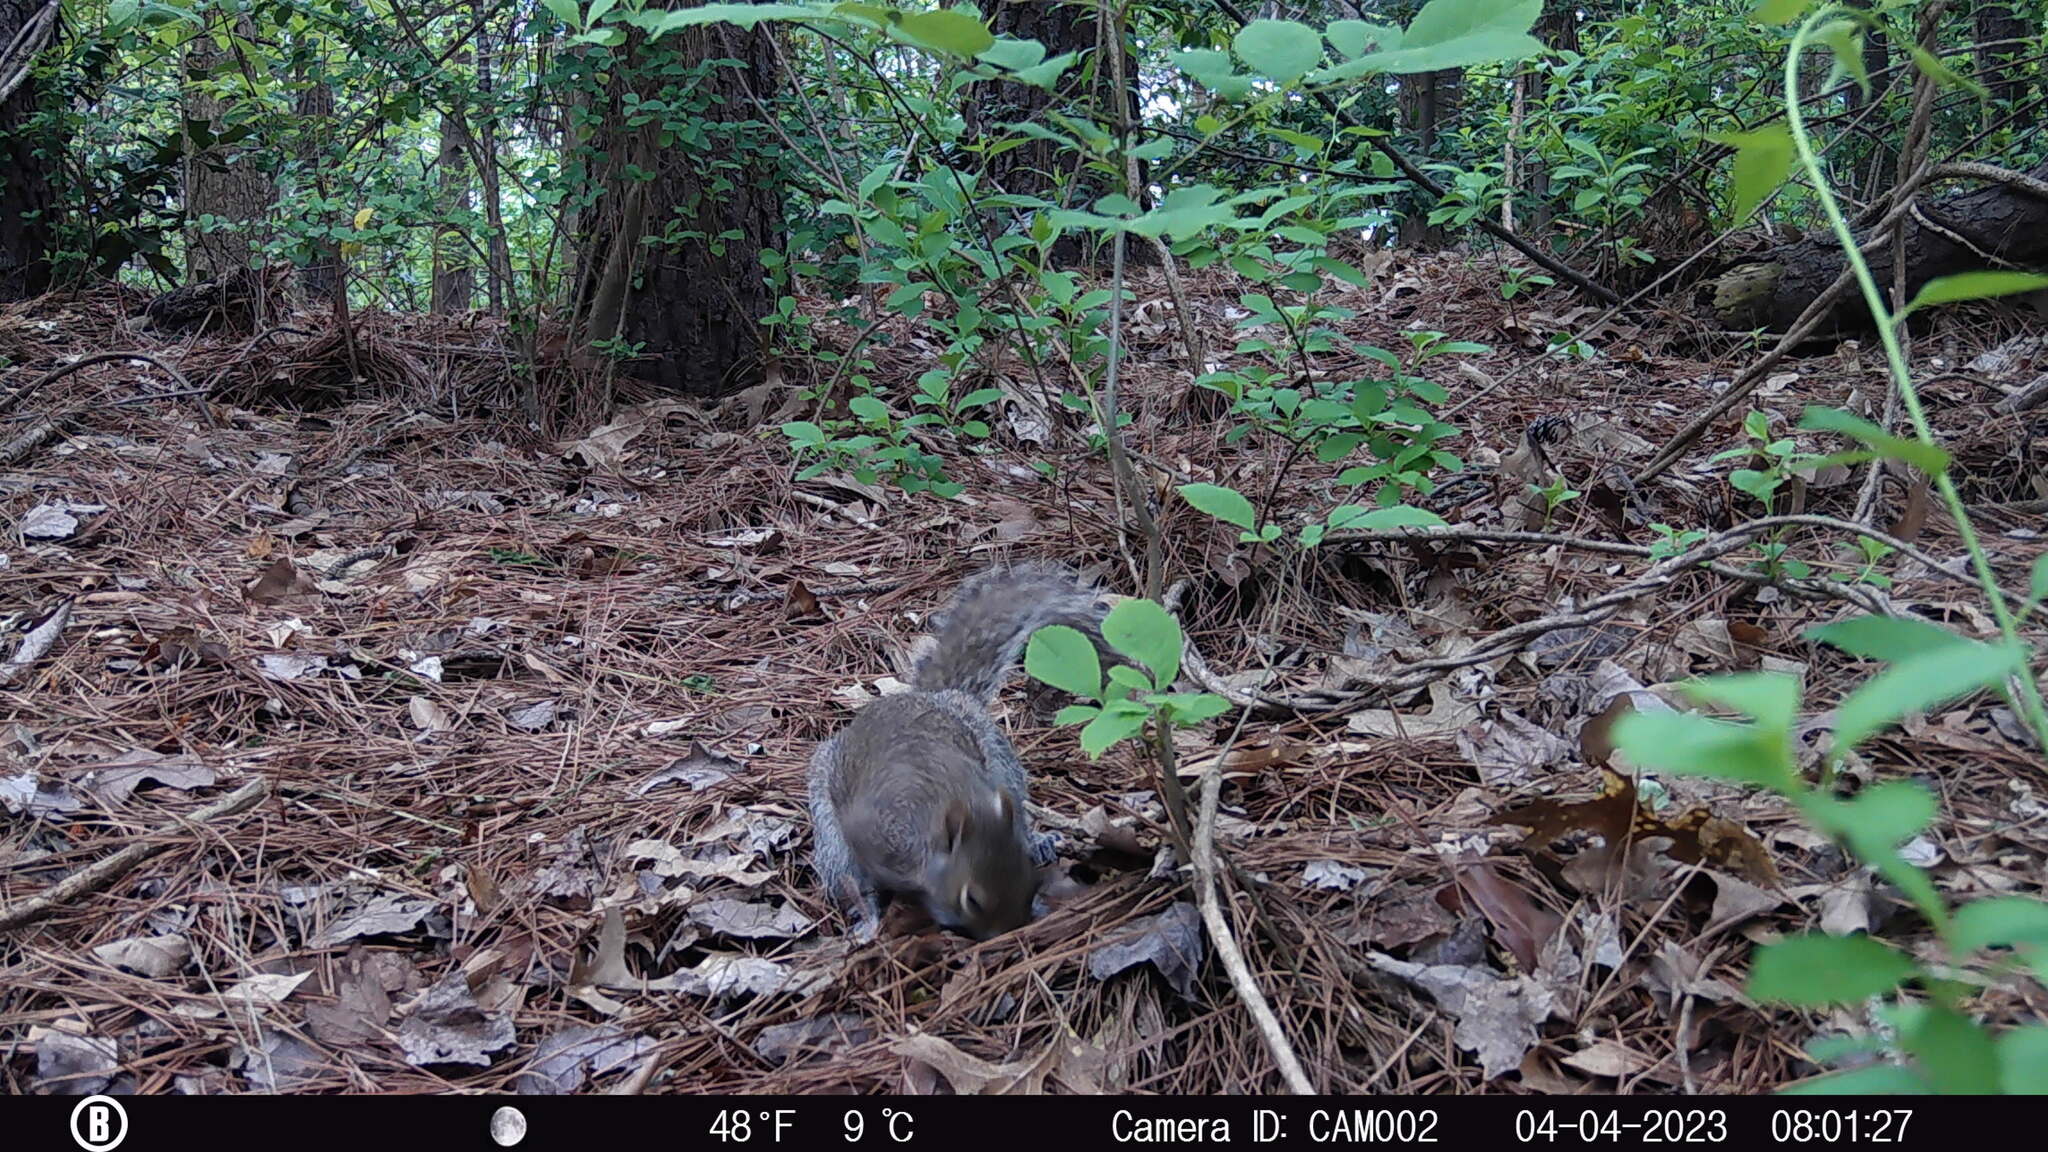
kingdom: Animalia
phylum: Chordata
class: Mammalia
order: Rodentia
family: Sciuridae
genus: Sciurus
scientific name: Sciurus carolinensis
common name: Eastern gray squirrel
